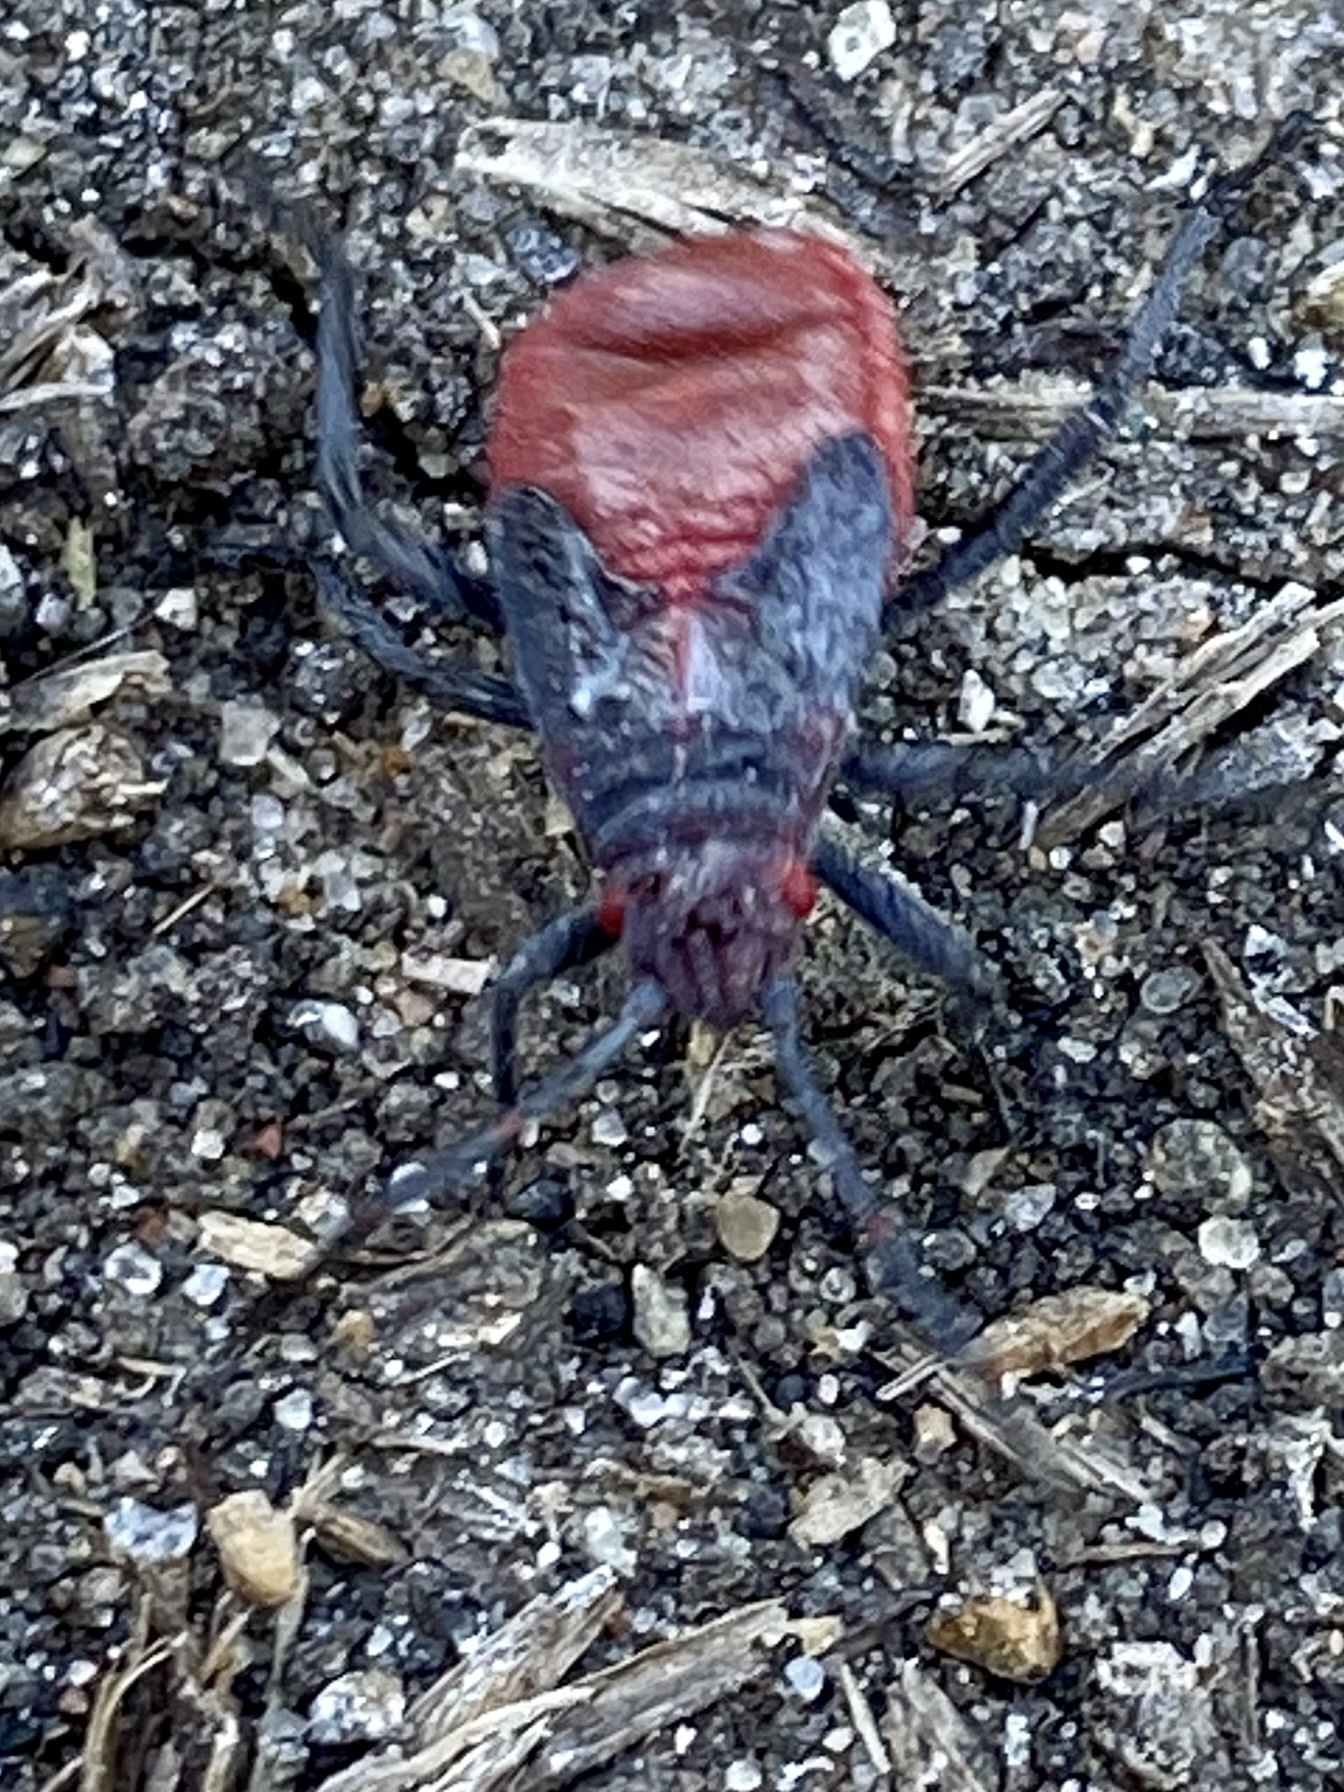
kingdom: Animalia
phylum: Arthropoda
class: Insecta
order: Hemiptera
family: Rhopalidae
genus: Jadera
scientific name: Jadera haematoloma
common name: Red-shouldered bug
